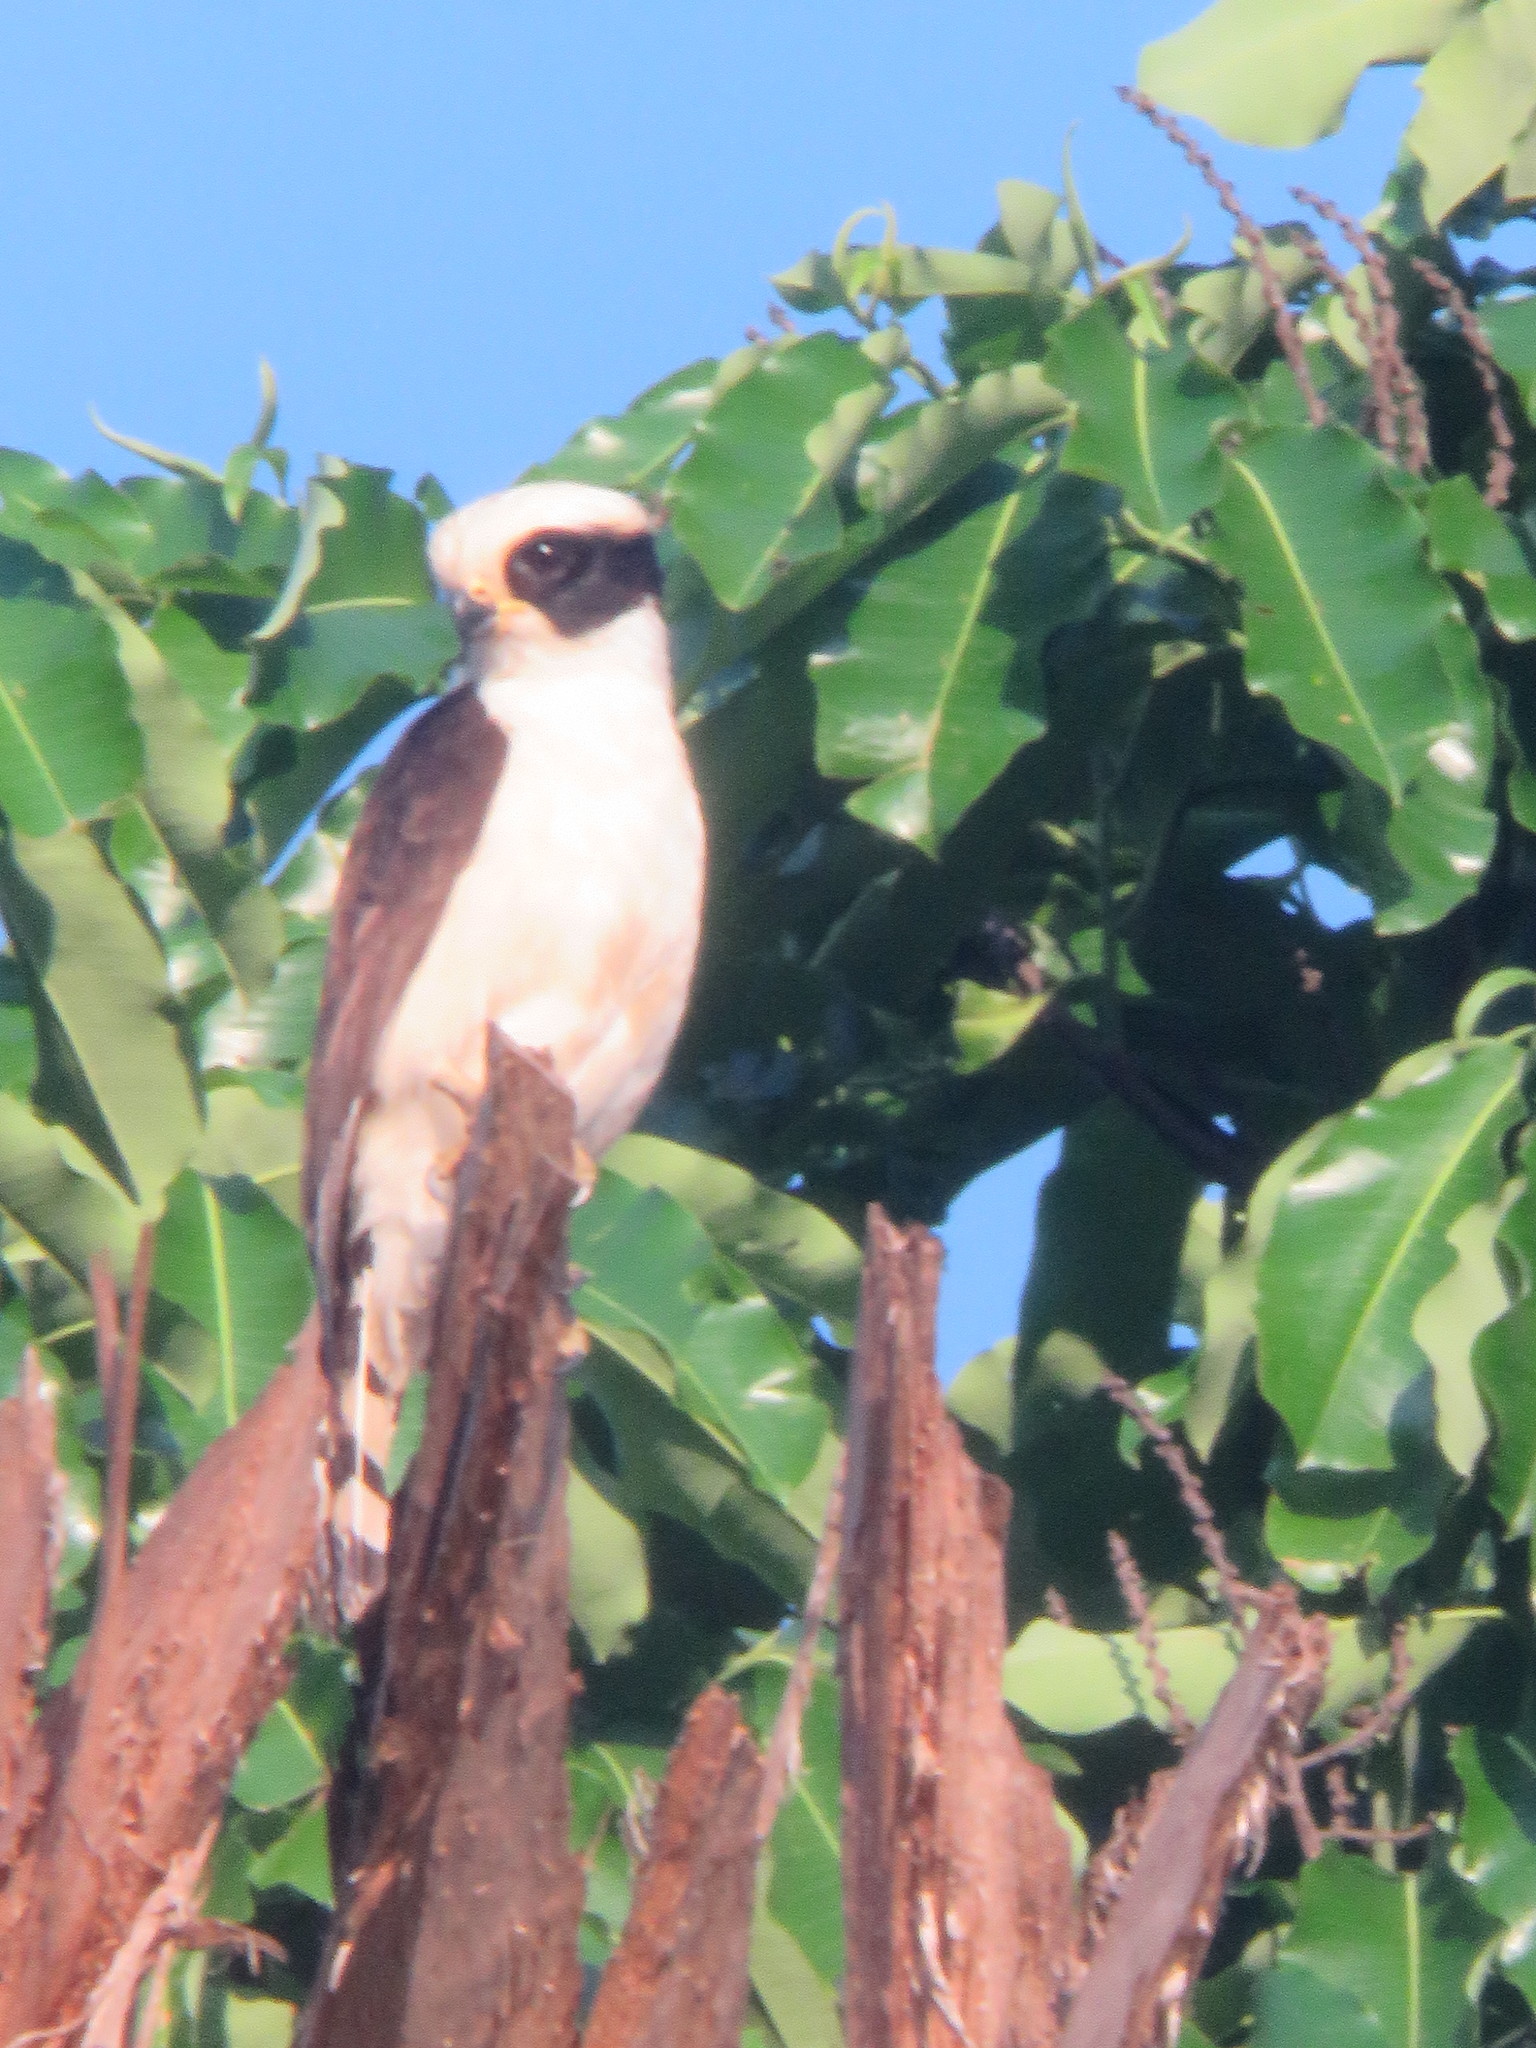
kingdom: Animalia
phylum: Chordata
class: Aves
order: Falconiformes
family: Falconidae
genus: Herpetotheres
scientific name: Herpetotheres cachinnans
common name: Laughing falcon
